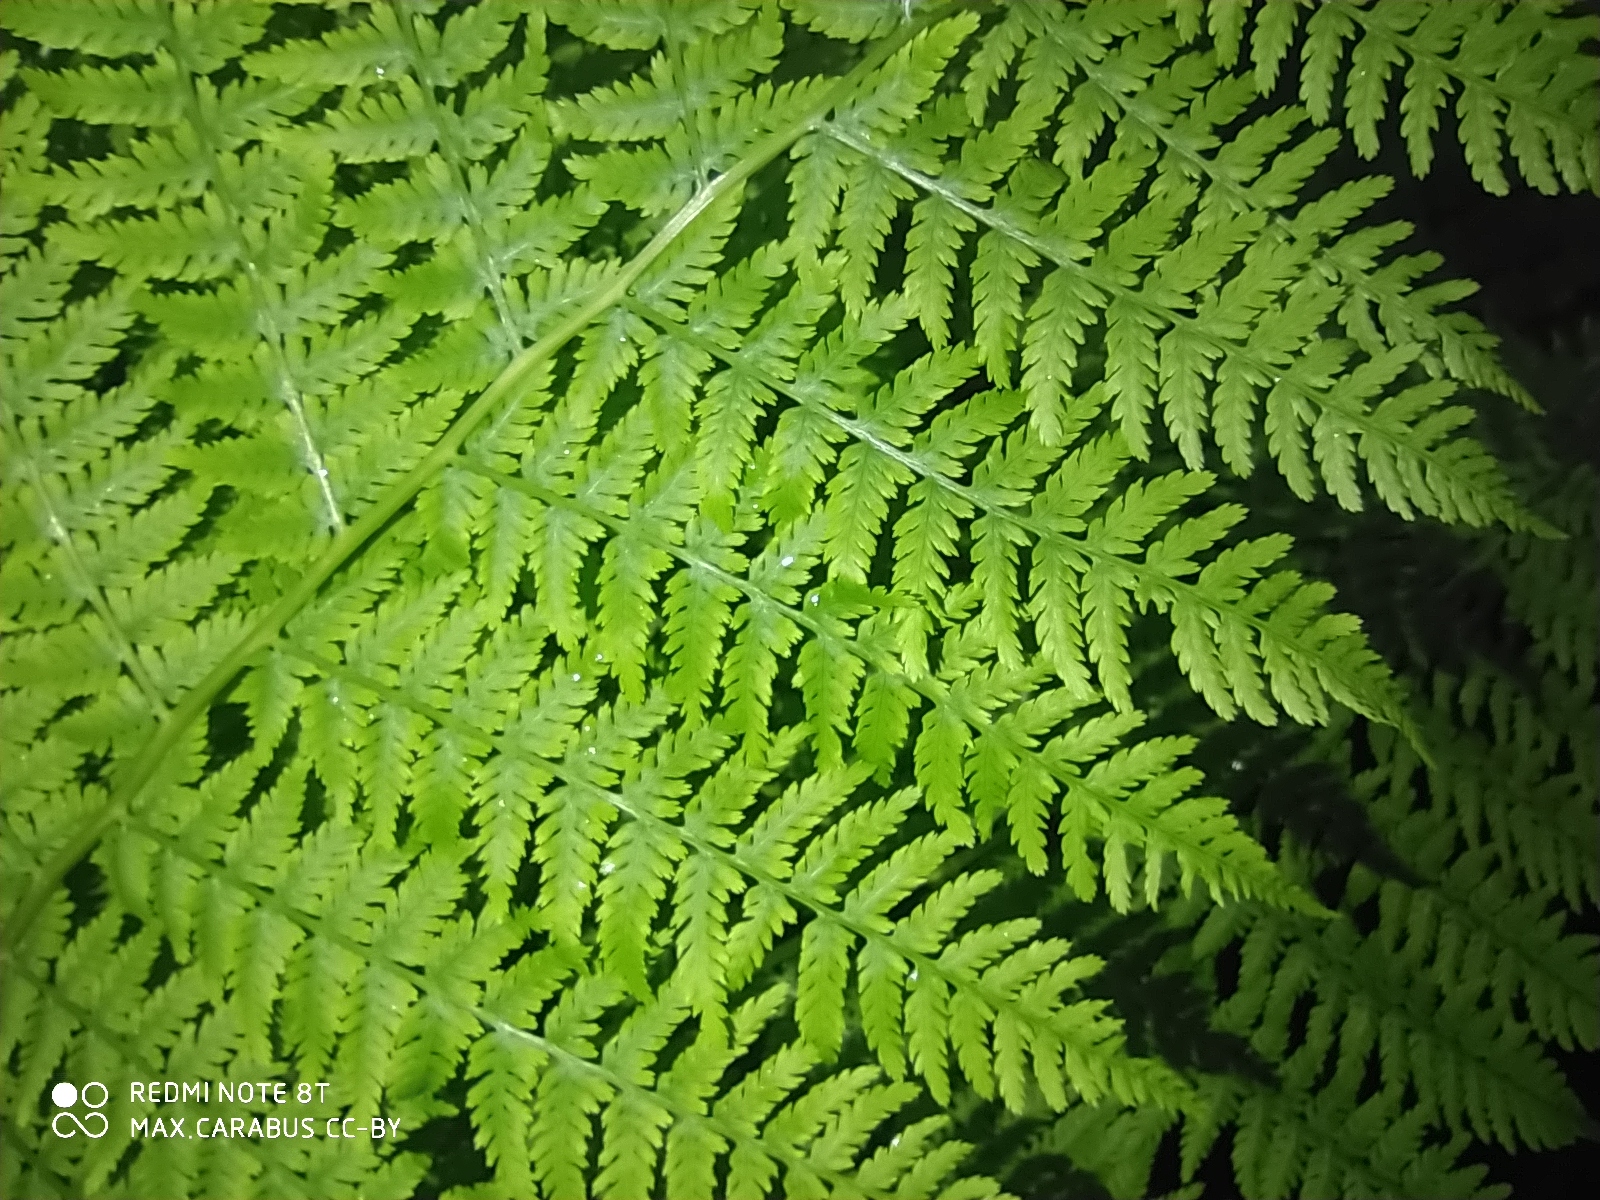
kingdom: Plantae
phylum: Tracheophyta
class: Polypodiopsida
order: Polypodiales
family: Athyriaceae
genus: Athyrium
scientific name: Athyrium filix-femina
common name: Lady fern
